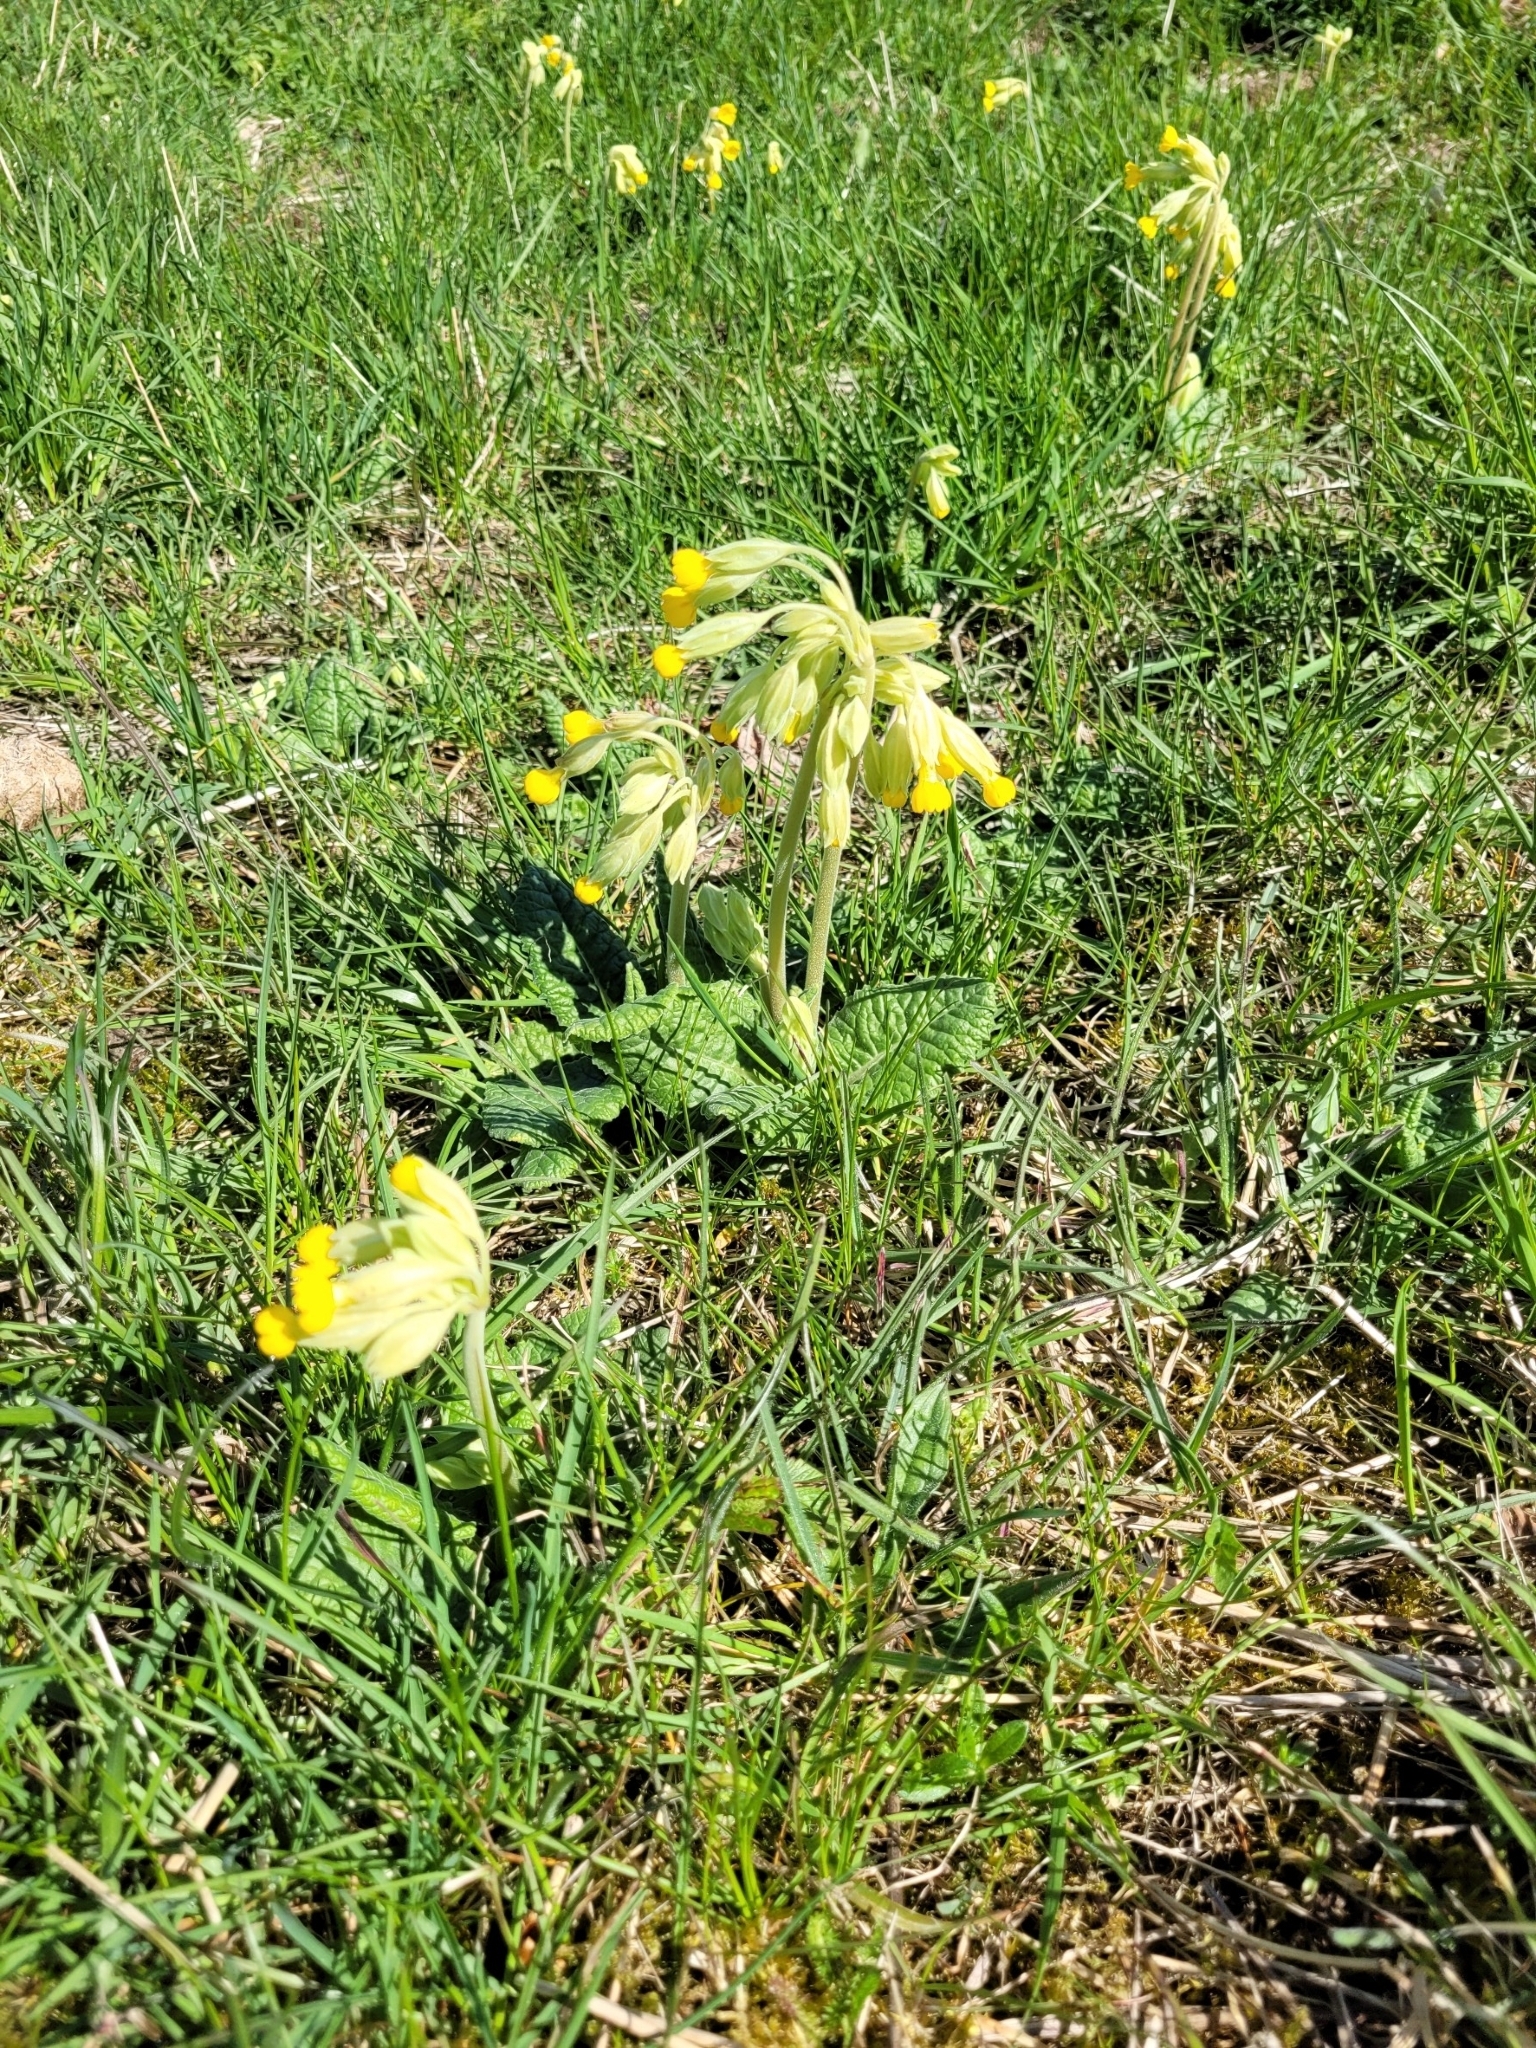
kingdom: Plantae
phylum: Tracheophyta
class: Magnoliopsida
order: Ericales
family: Primulaceae
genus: Primula
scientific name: Primula veris
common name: Cowslip
